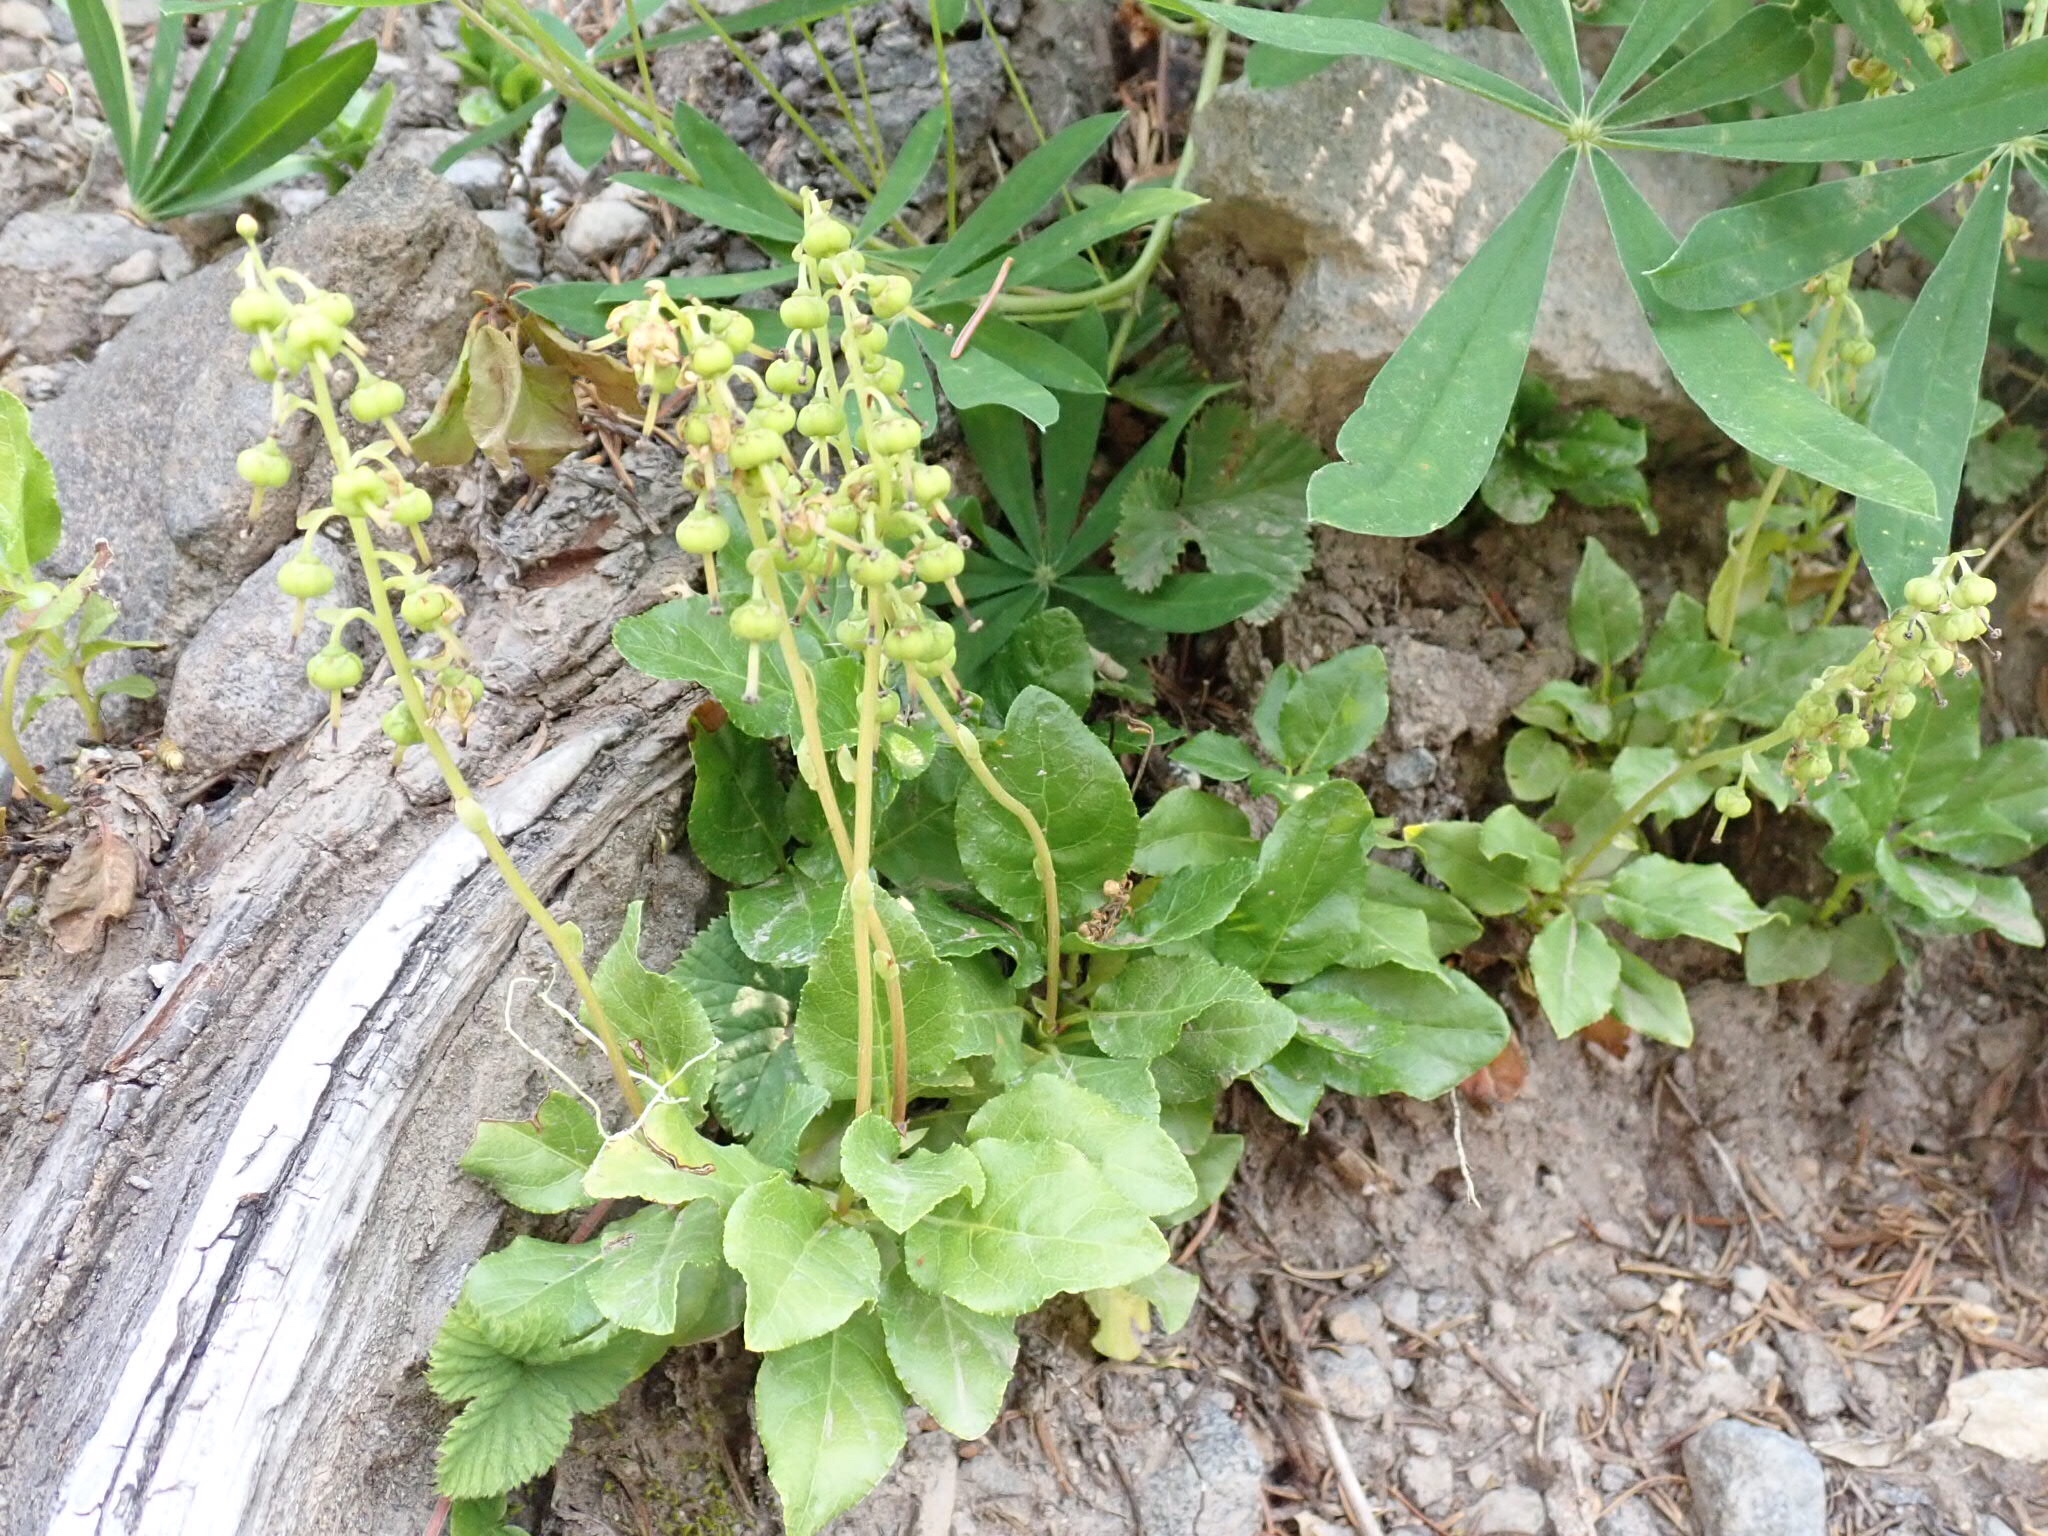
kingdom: Plantae
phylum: Tracheophyta
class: Magnoliopsida
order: Ericales
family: Ericaceae
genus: Orthilia
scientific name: Orthilia secunda
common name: One-sided orthilia
